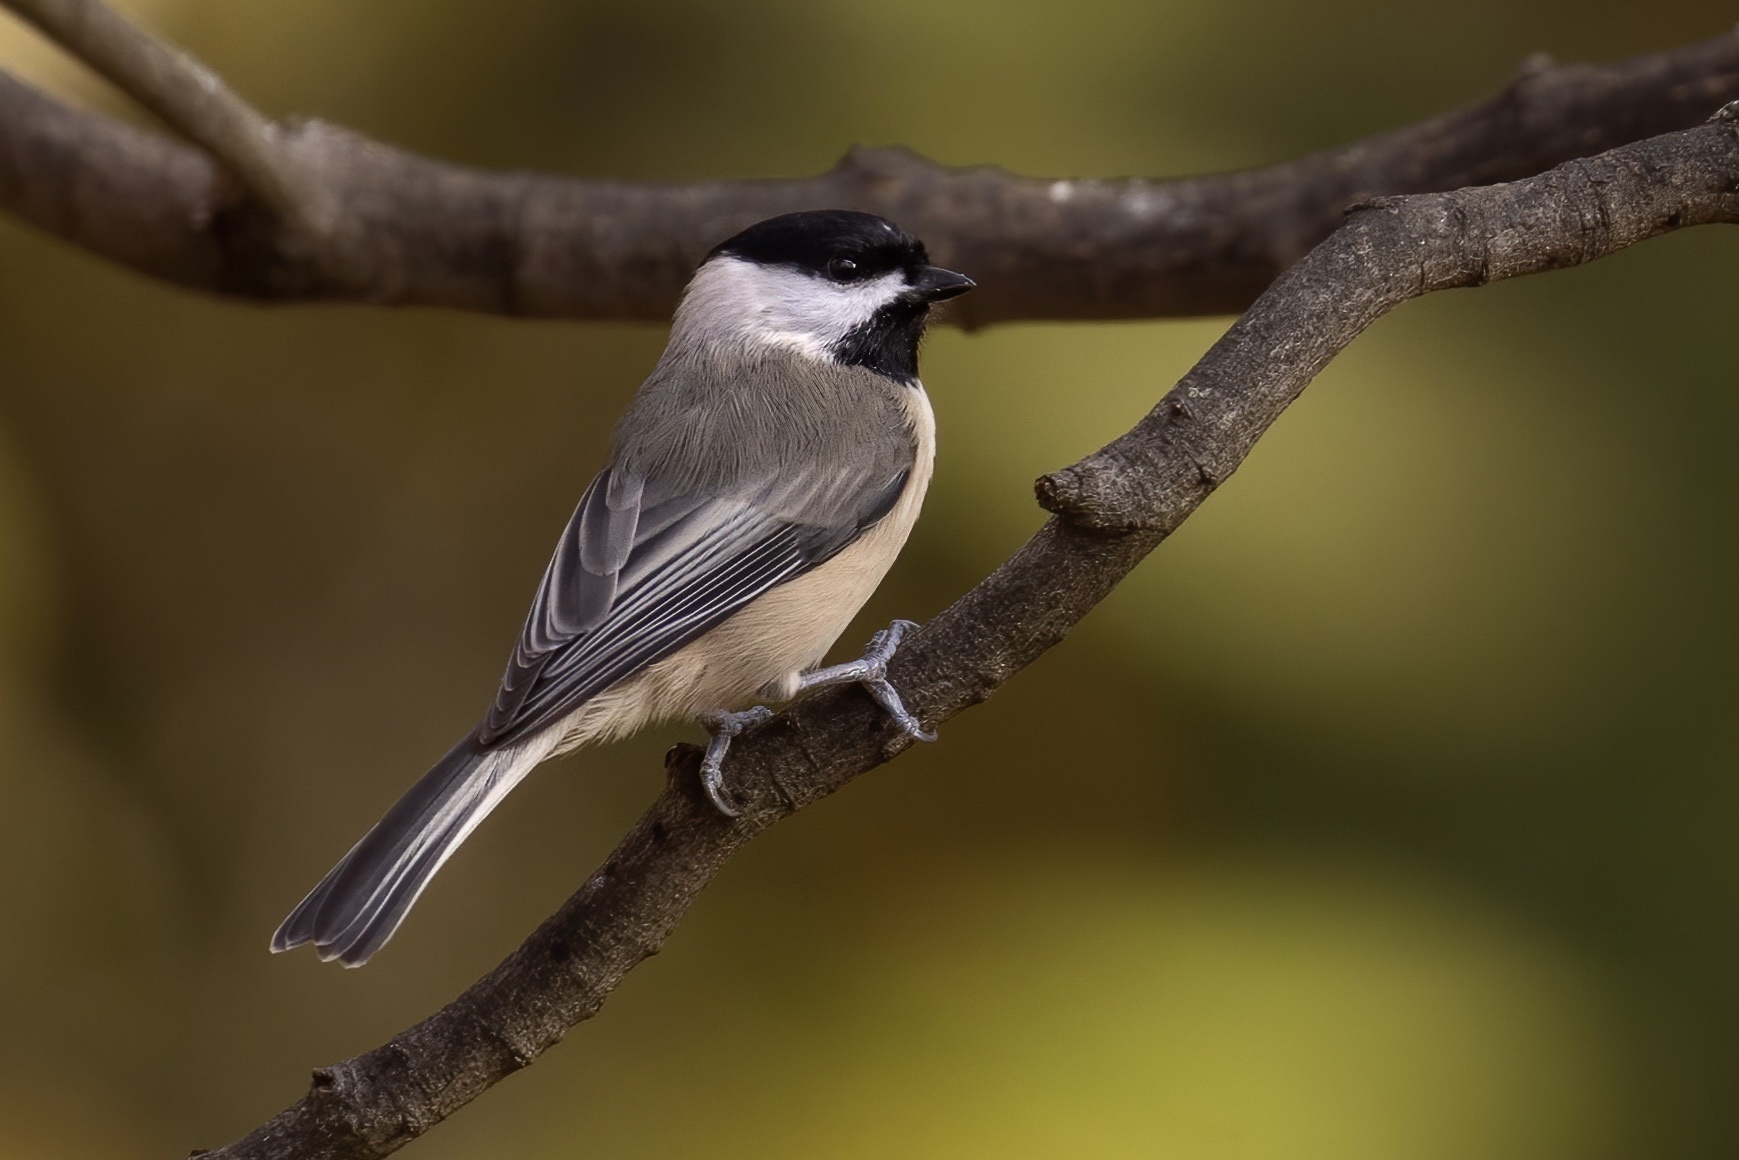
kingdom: Animalia
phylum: Chordata
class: Aves
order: Passeriformes
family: Paridae
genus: Poecile
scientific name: Poecile carolinensis
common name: Carolina chickadee
